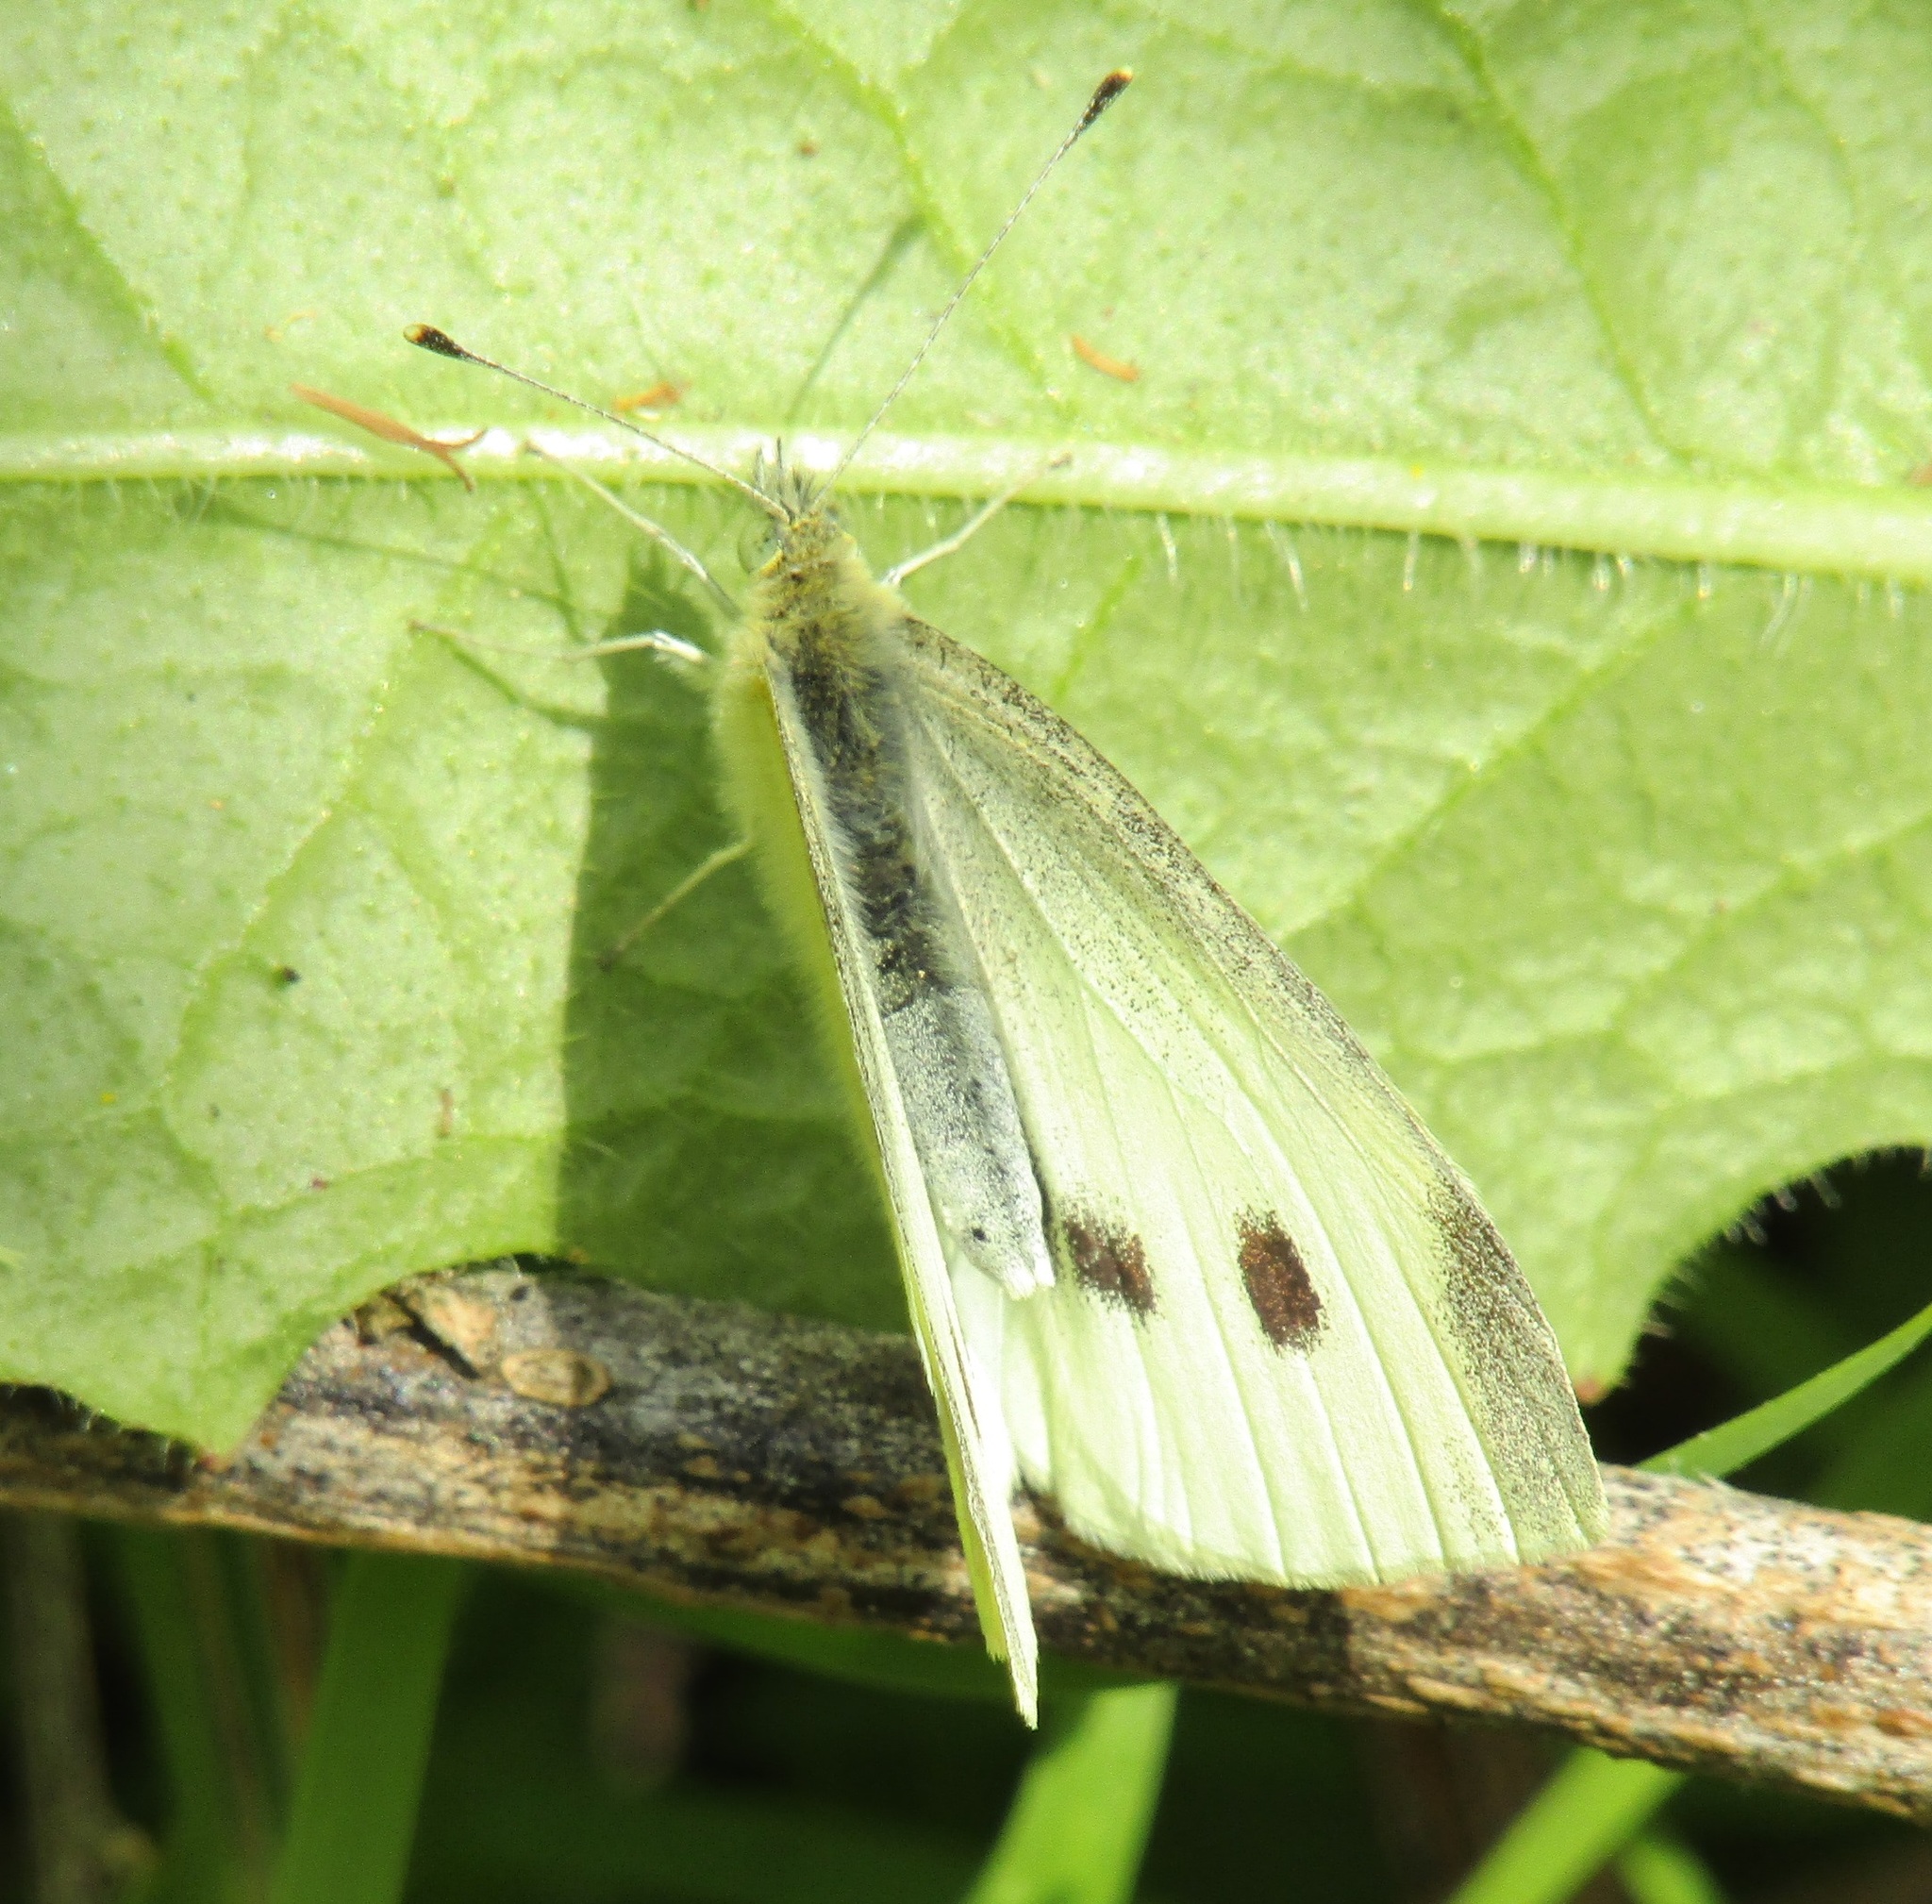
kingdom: Animalia
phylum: Arthropoda
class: Insecta
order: Lepidoptera
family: Pieridae
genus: Pieris
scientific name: Pieris rapae
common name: Small white
